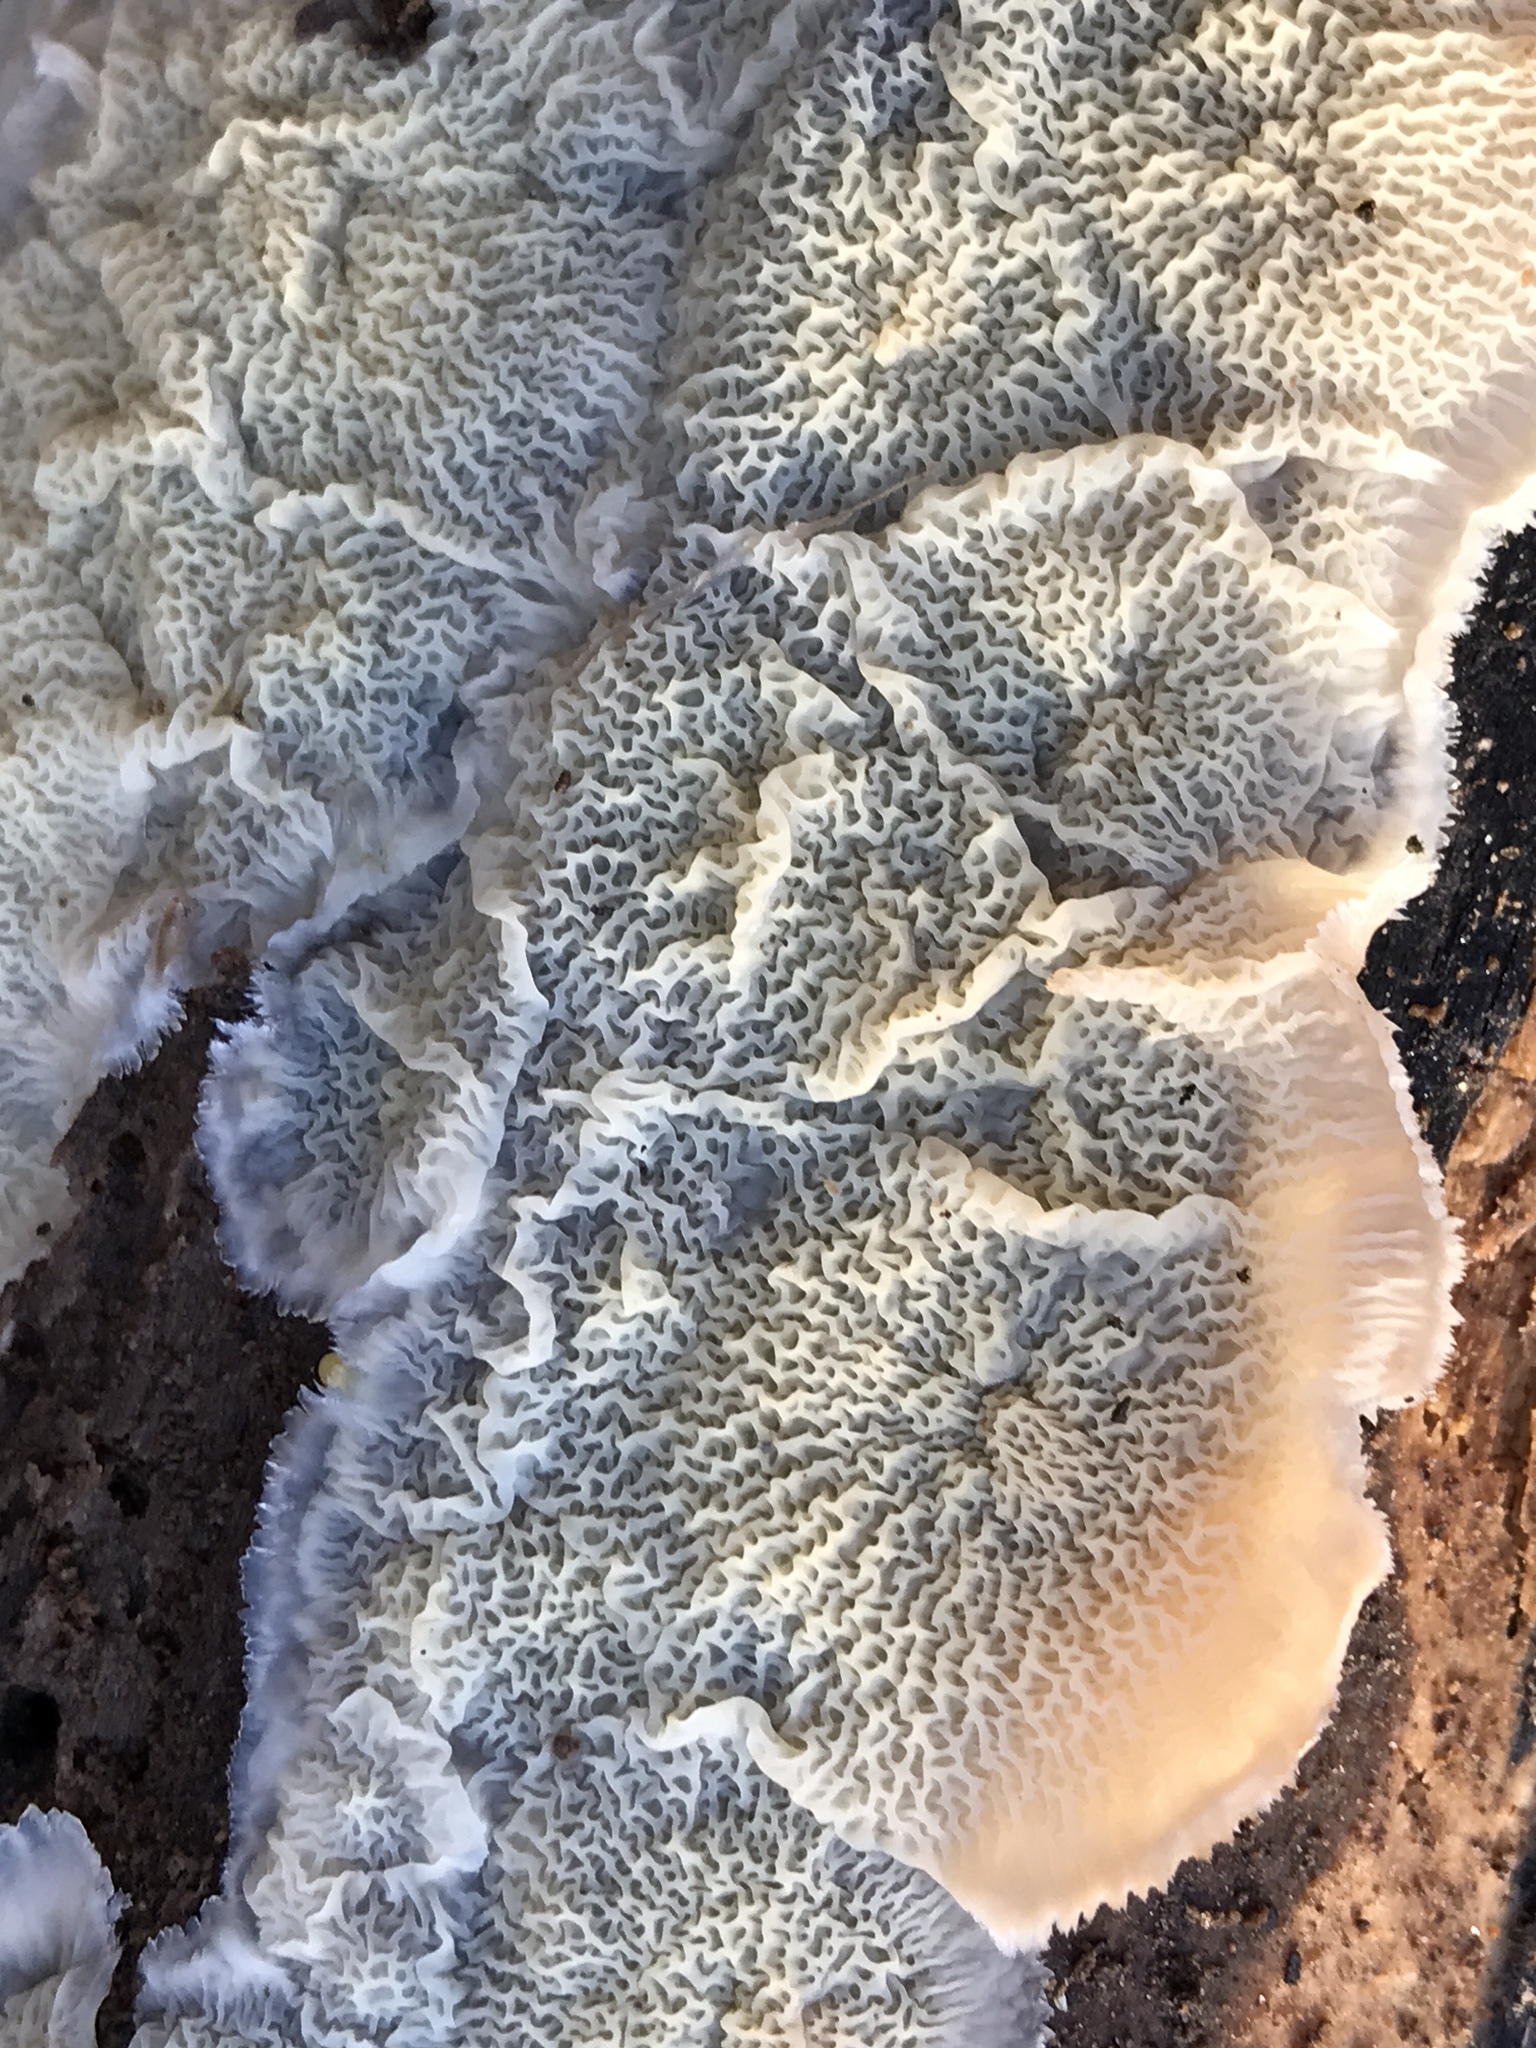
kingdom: Fungi
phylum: Basidiomycota
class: Agaricomycetes
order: Polyporales
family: Meruliaceae
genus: Phlebia
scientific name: Phlebia tremellosa
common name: Jelly rot
